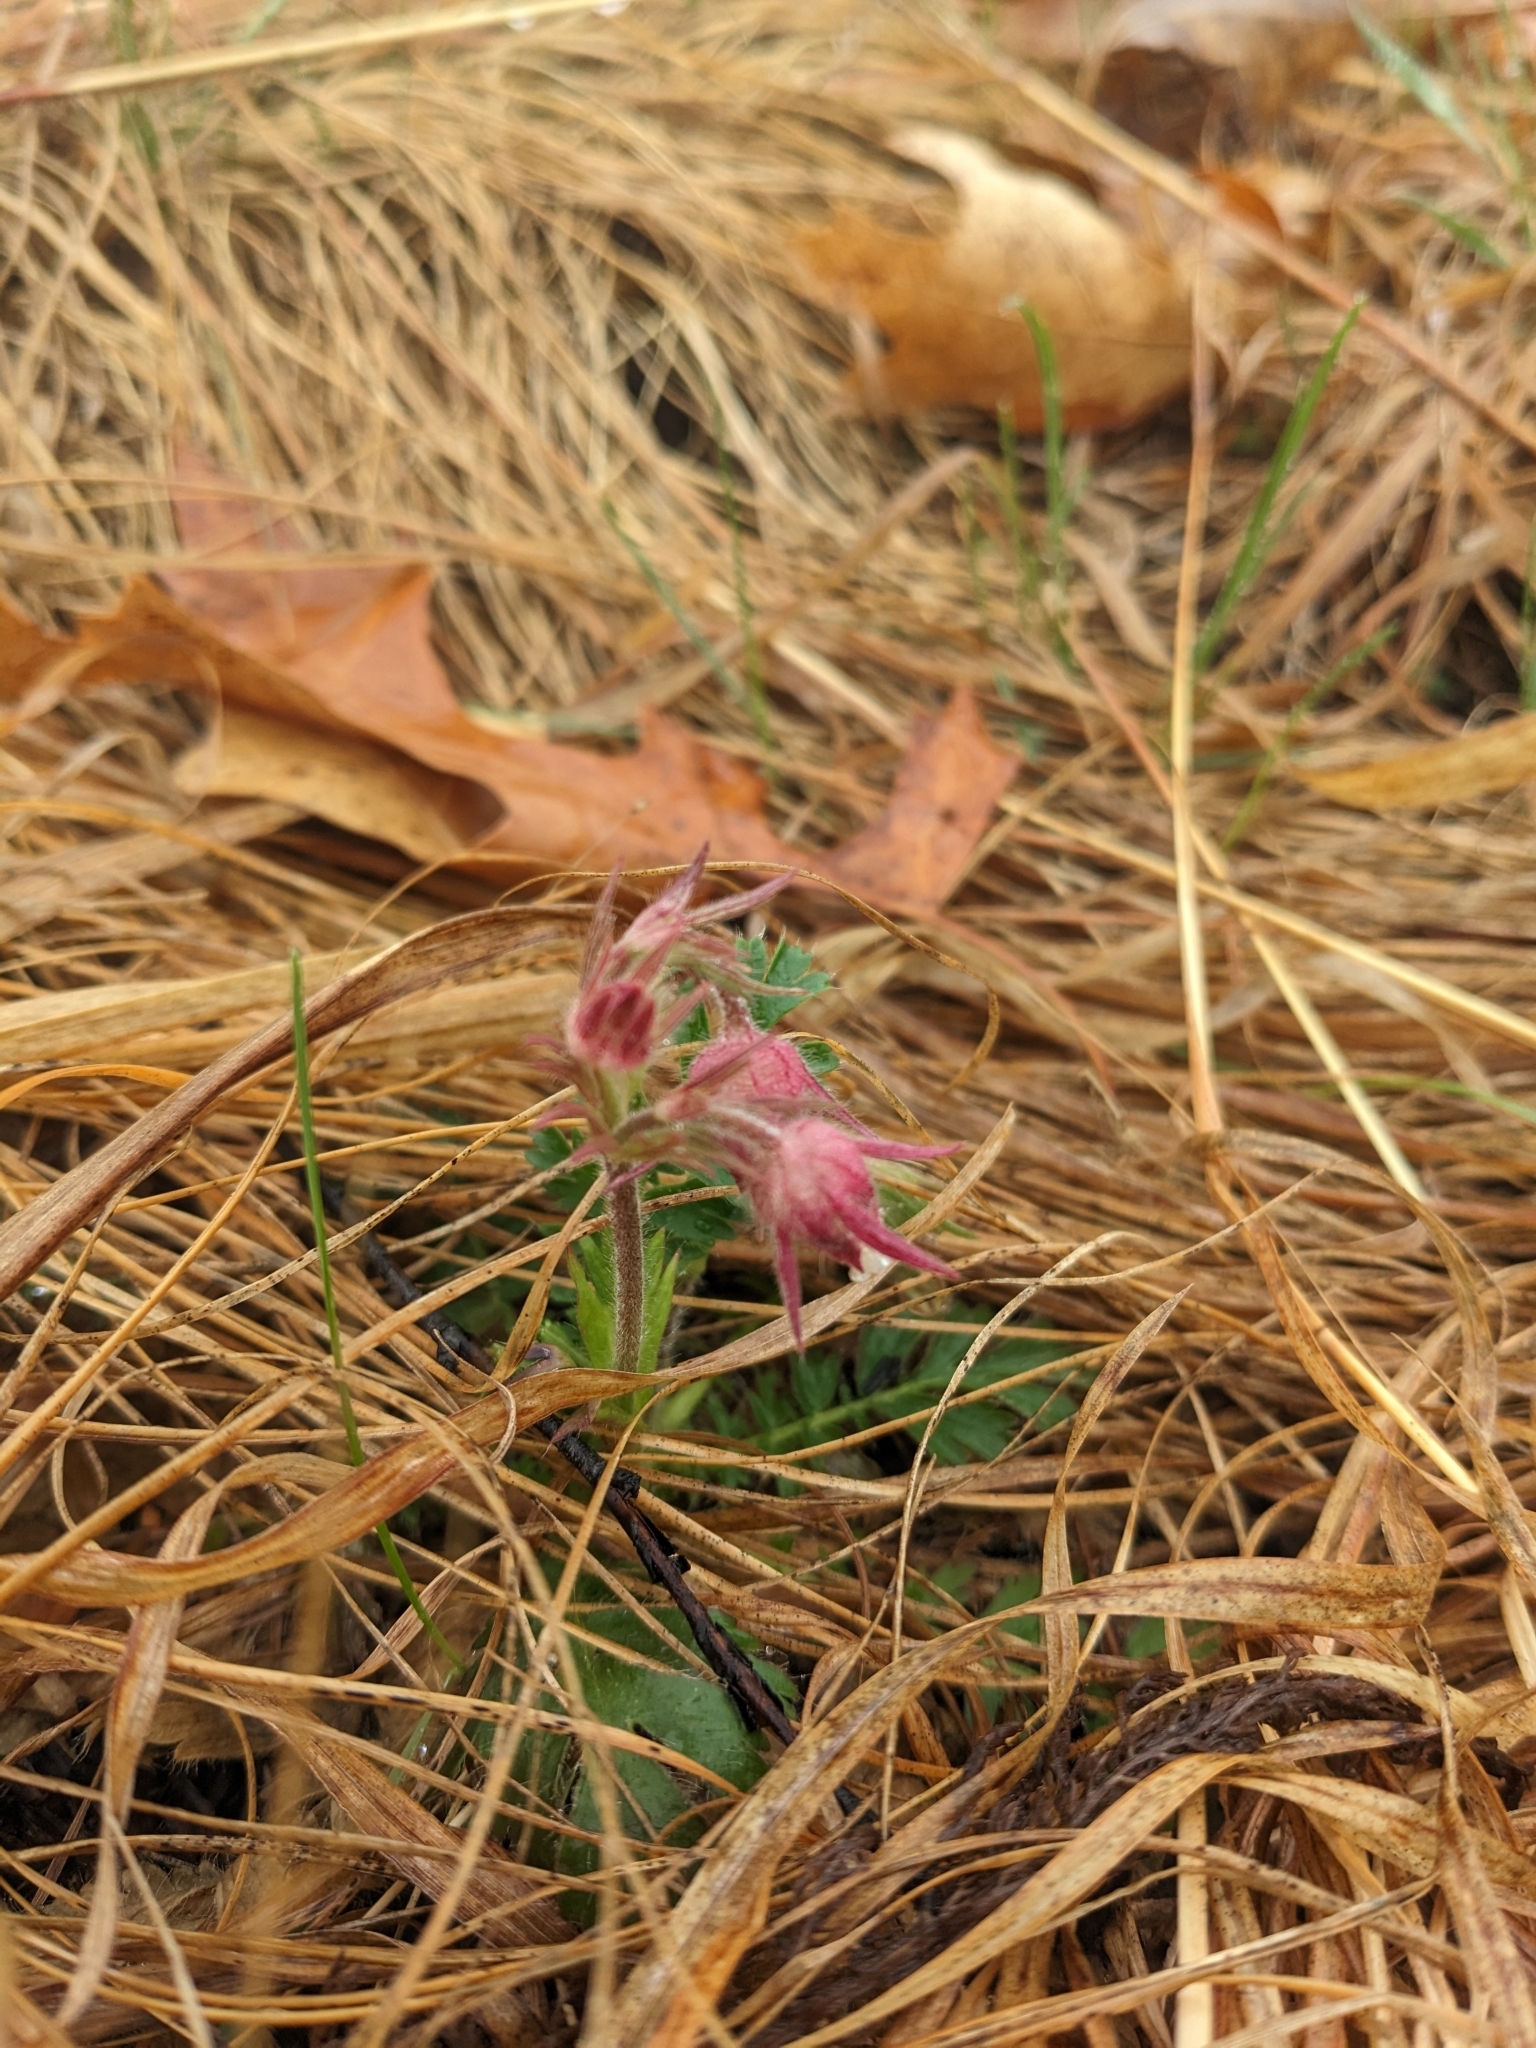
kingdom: Plantae
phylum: Tracheophyta
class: Magnoliopsida
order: Rosales
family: Rosaceae
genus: Geum
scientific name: Geum triflorum
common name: Old man's whiskers
